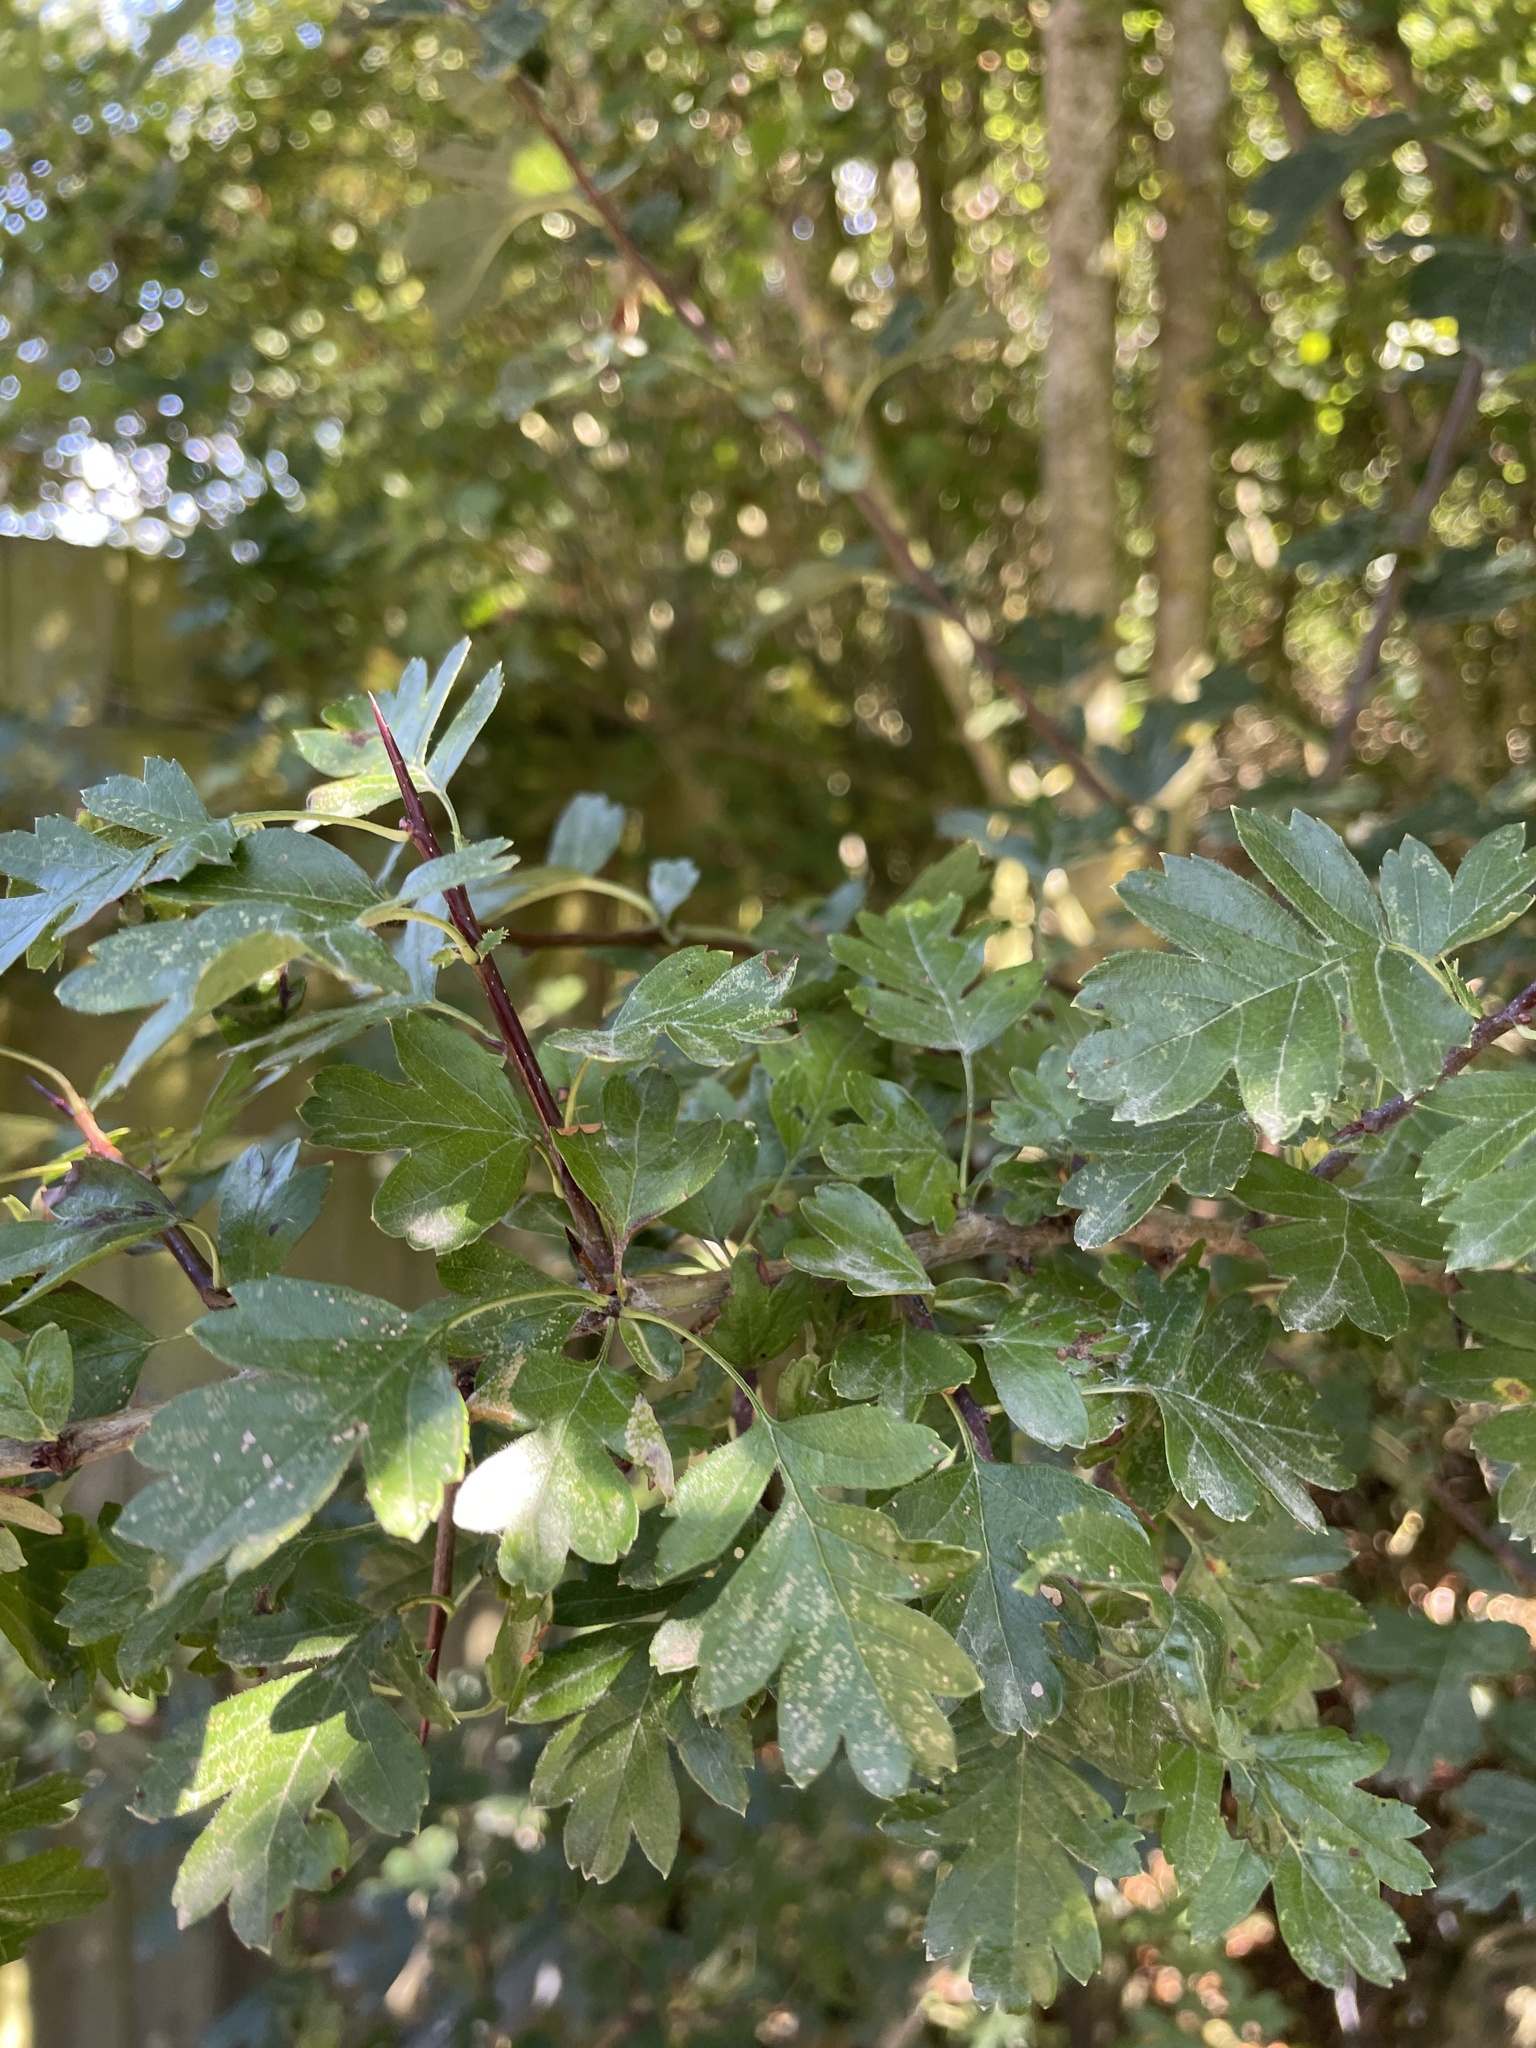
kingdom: Plantae
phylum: Tracheophyta
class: Magnoliopsida
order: Rosales
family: Rosaceae
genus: Crataegus
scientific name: Crataegus monogyna
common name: Hawthorn
